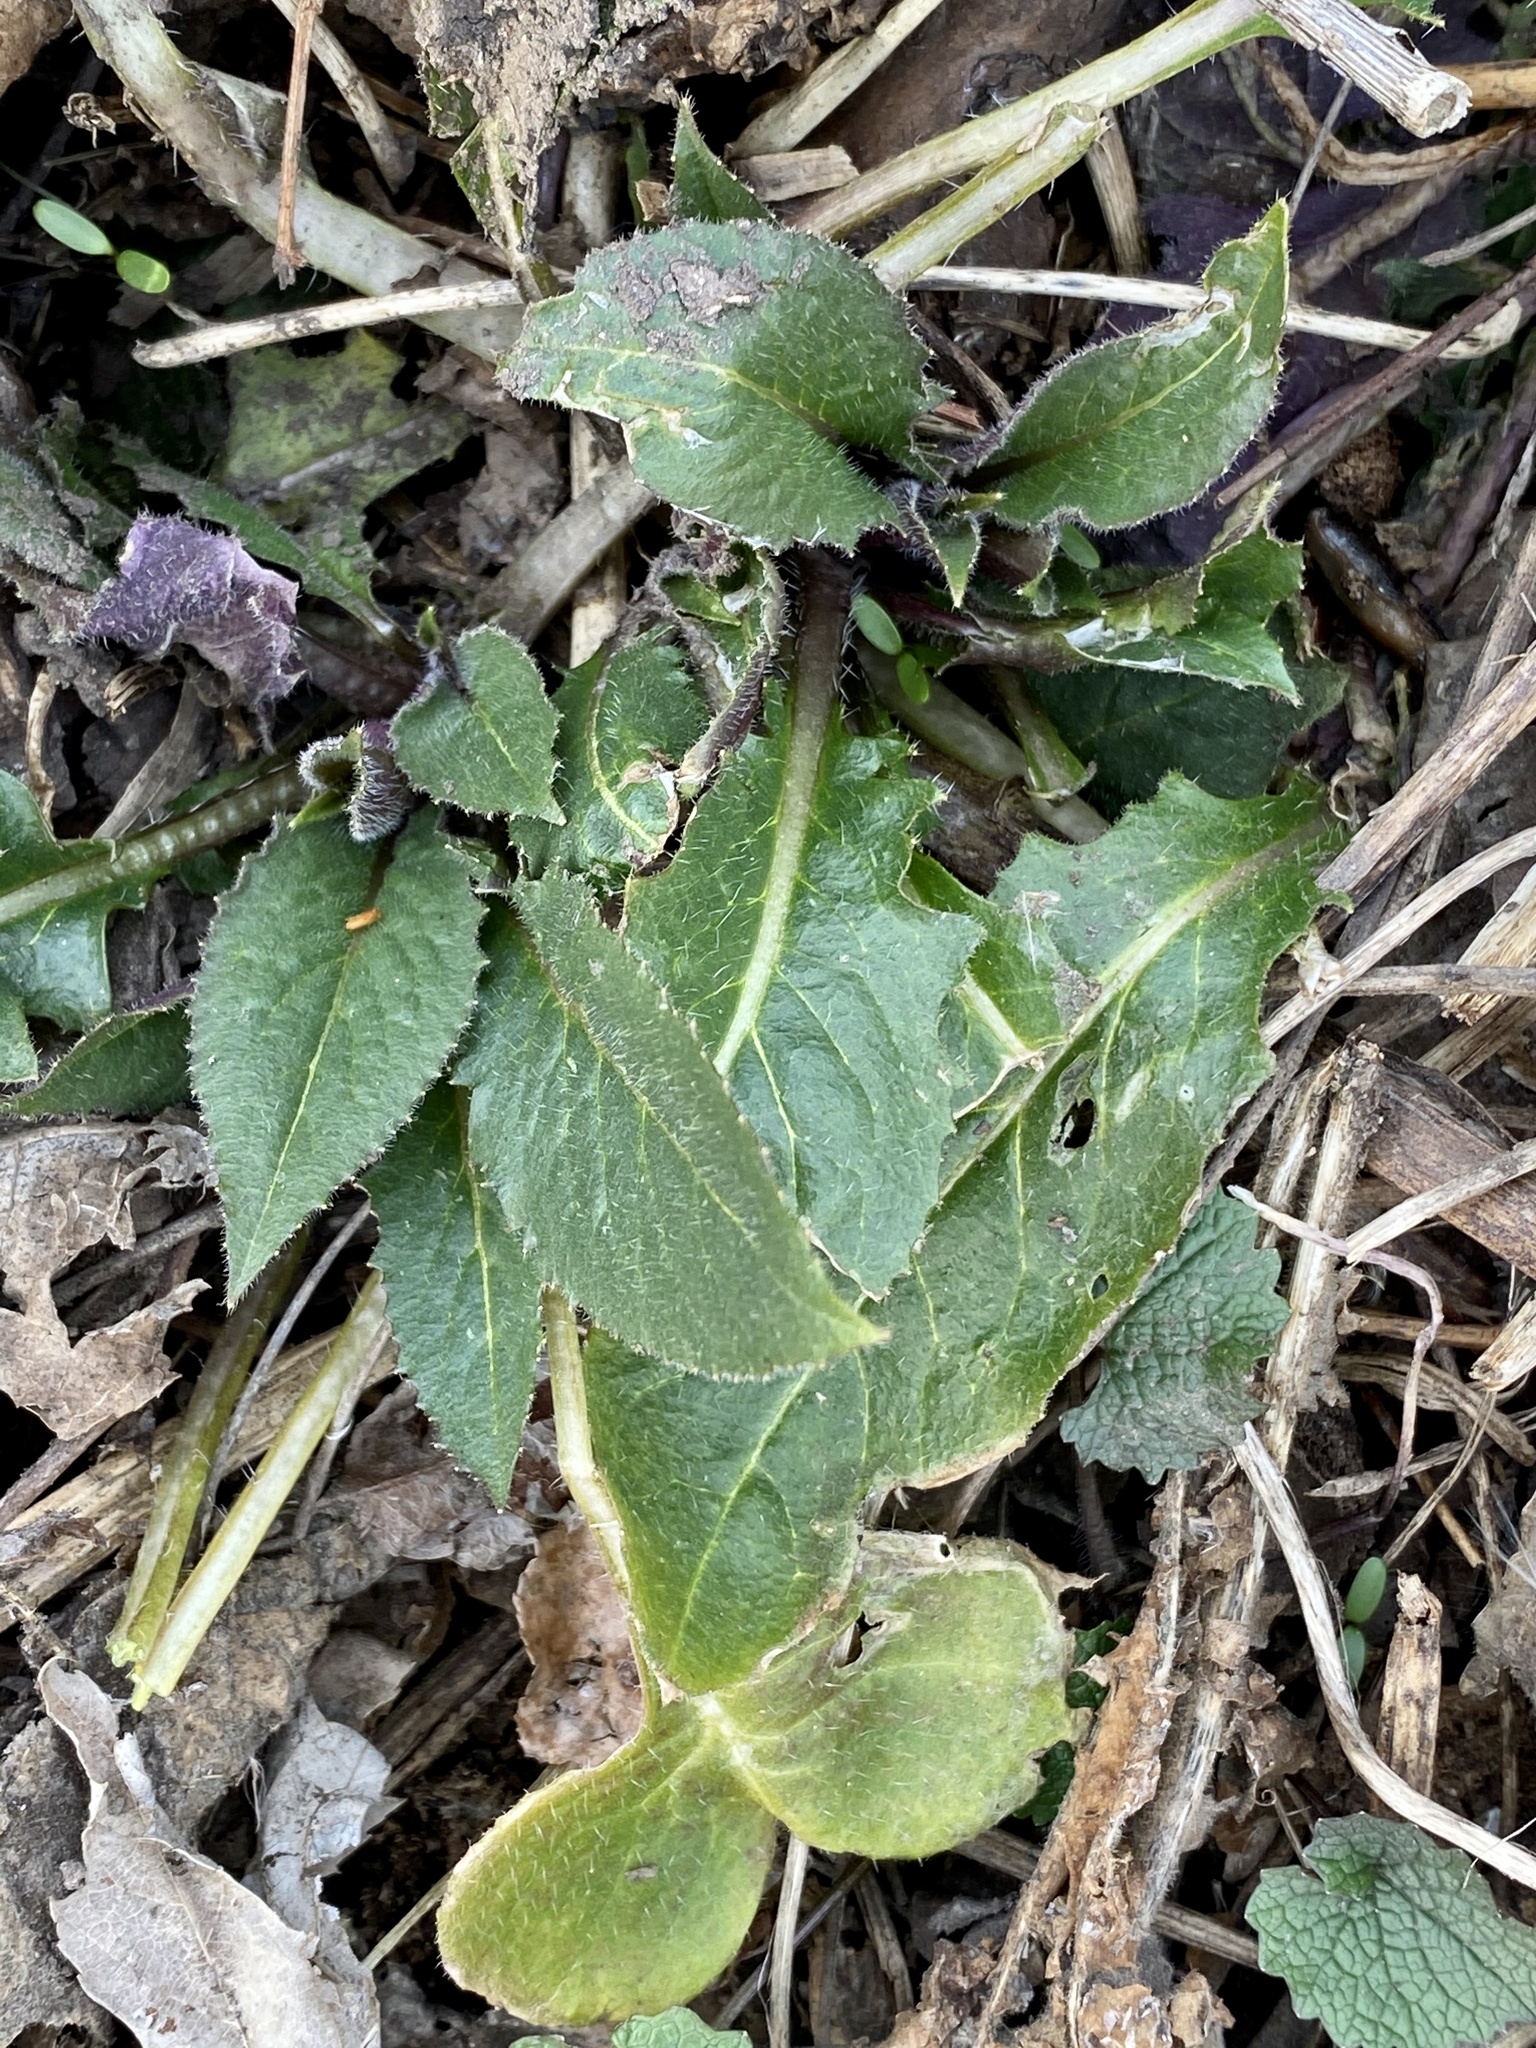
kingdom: Plantae
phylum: Tracheophyta
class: Magnoliopsida
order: Brassicales
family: Brassicaceae
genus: Hesperis
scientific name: Hesperis matronalis
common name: Dame's-violet
